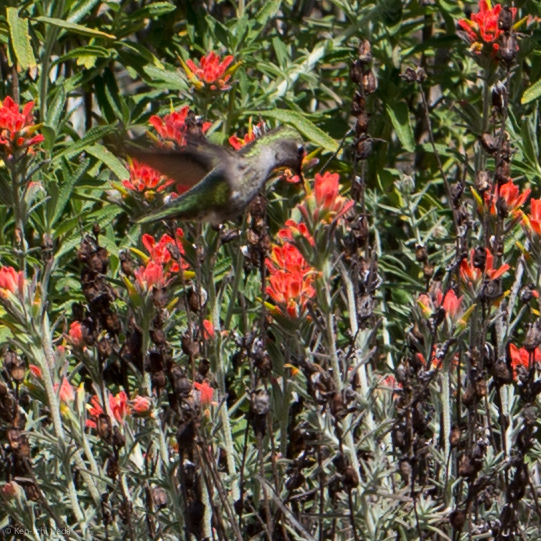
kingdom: Animalia
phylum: Chordata
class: Aves
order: Apodiformes
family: Trochilidae
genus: Calypte
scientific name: Calypte anna
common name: Anna's hummingbird
